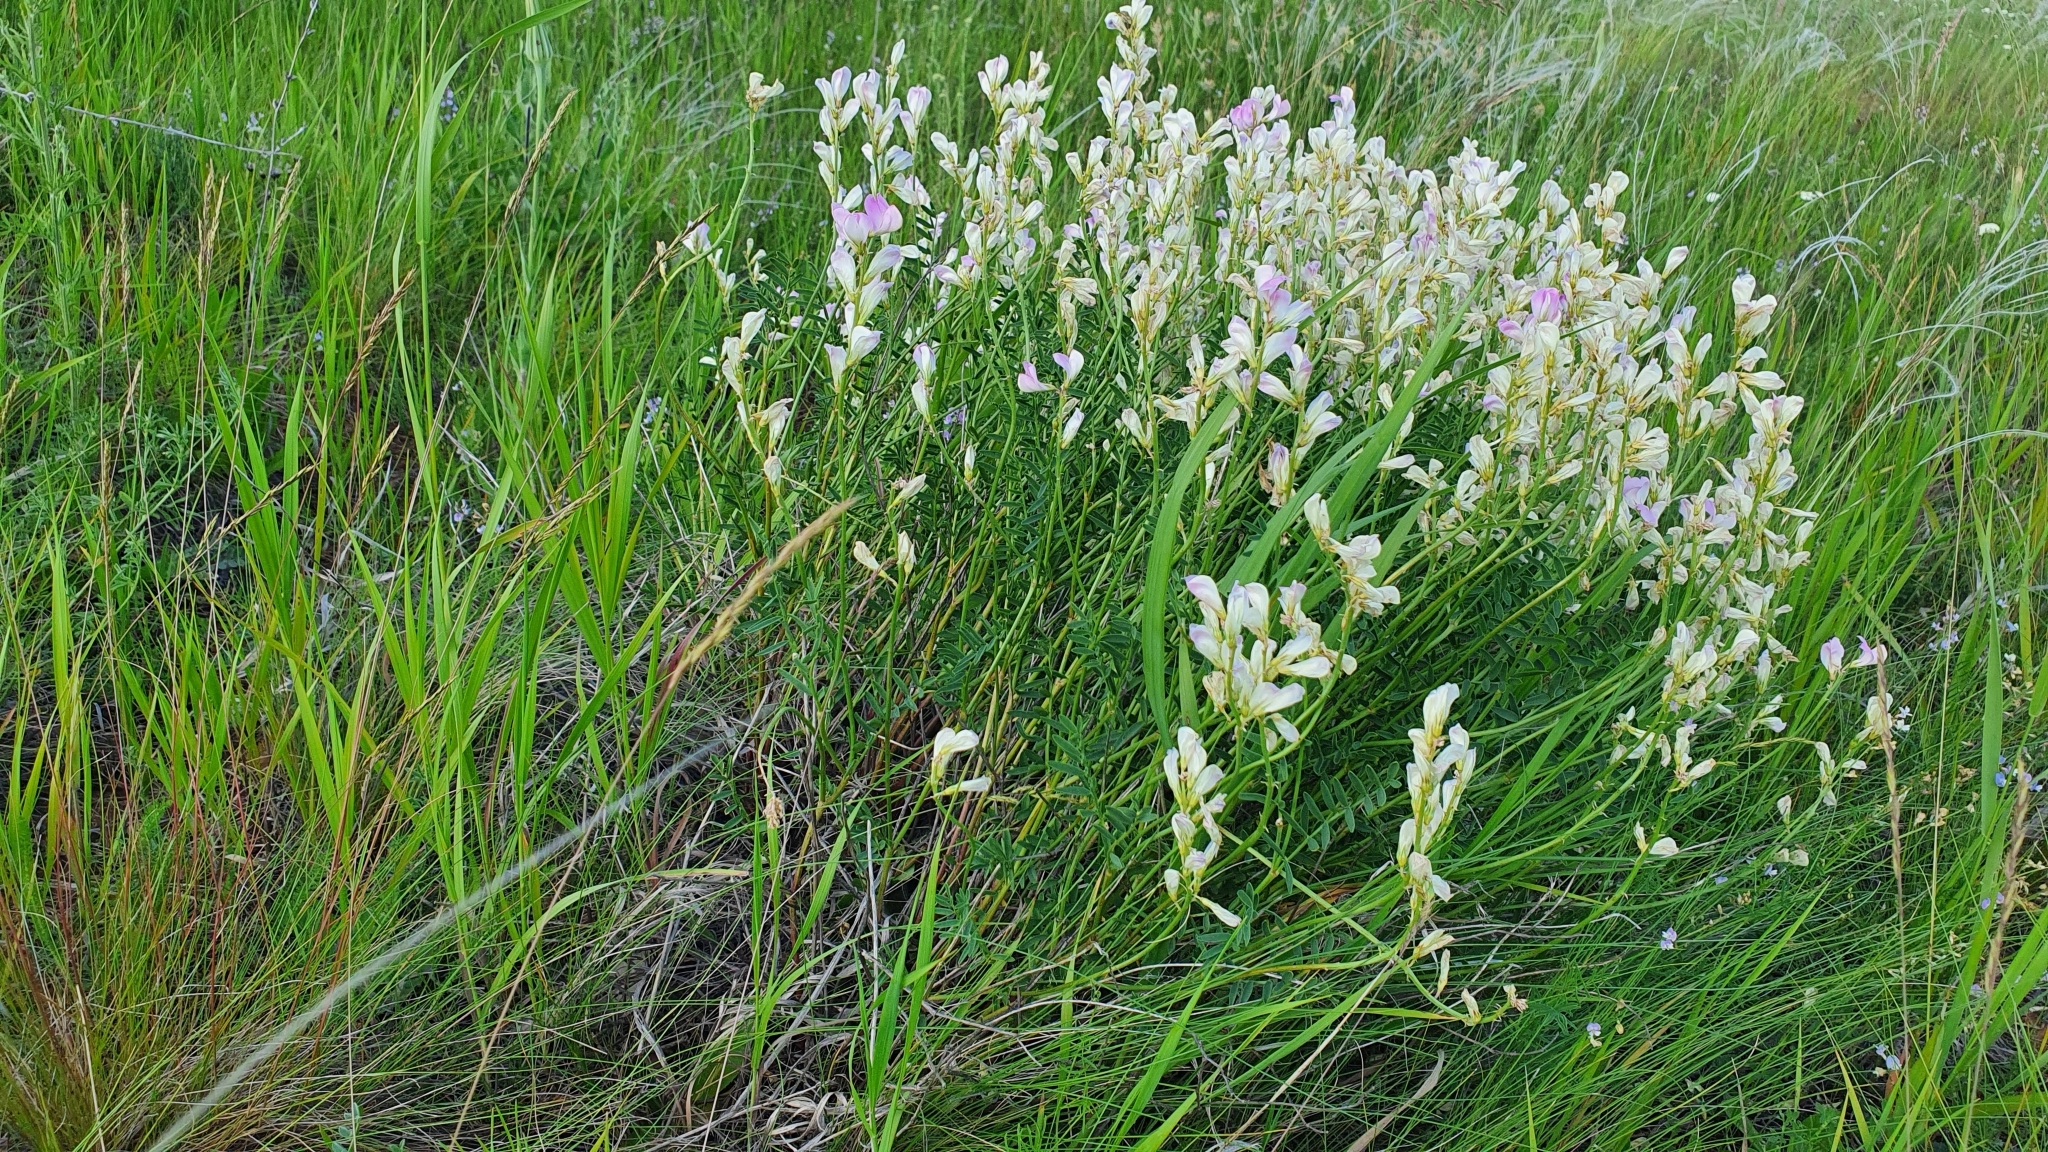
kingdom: Plantae
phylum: Tracheophyta
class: Magnoliopsida
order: Fabales
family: Fabaceae
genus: Hedysarum
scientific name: Hedysarum razoumovianum
